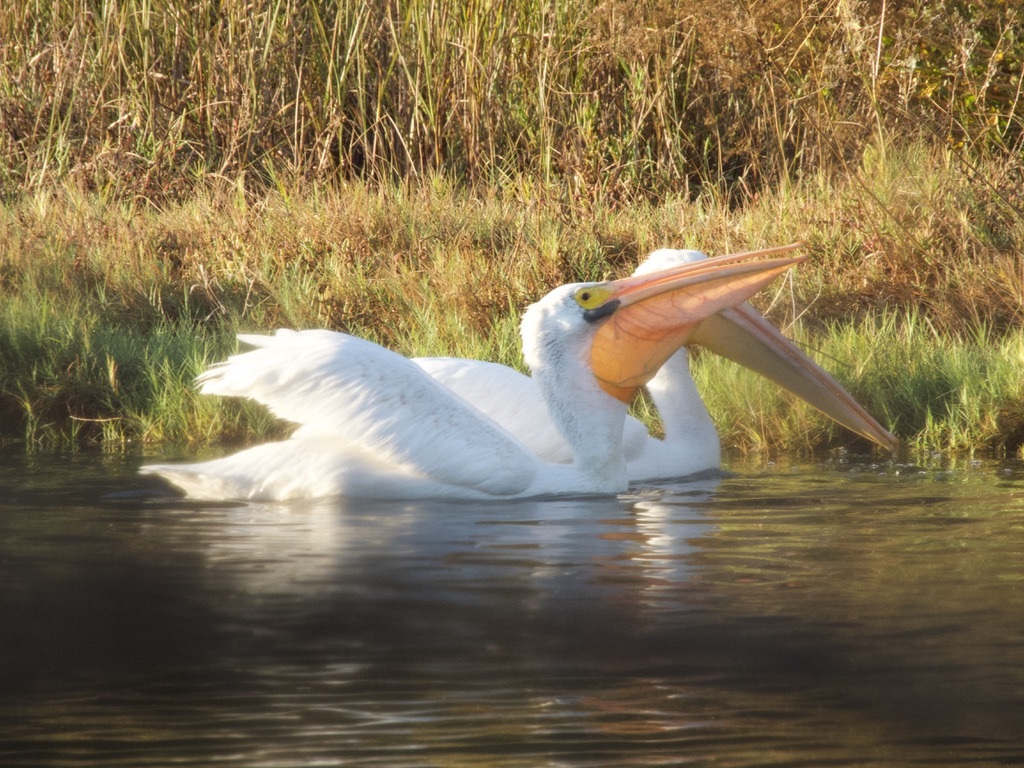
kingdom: Animalia
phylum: Chordata
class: Aves
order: Pelecaniformes
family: Pelecanidae
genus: Pelecanus
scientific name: Pelecanus erythrorhynchos
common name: American white pelican
